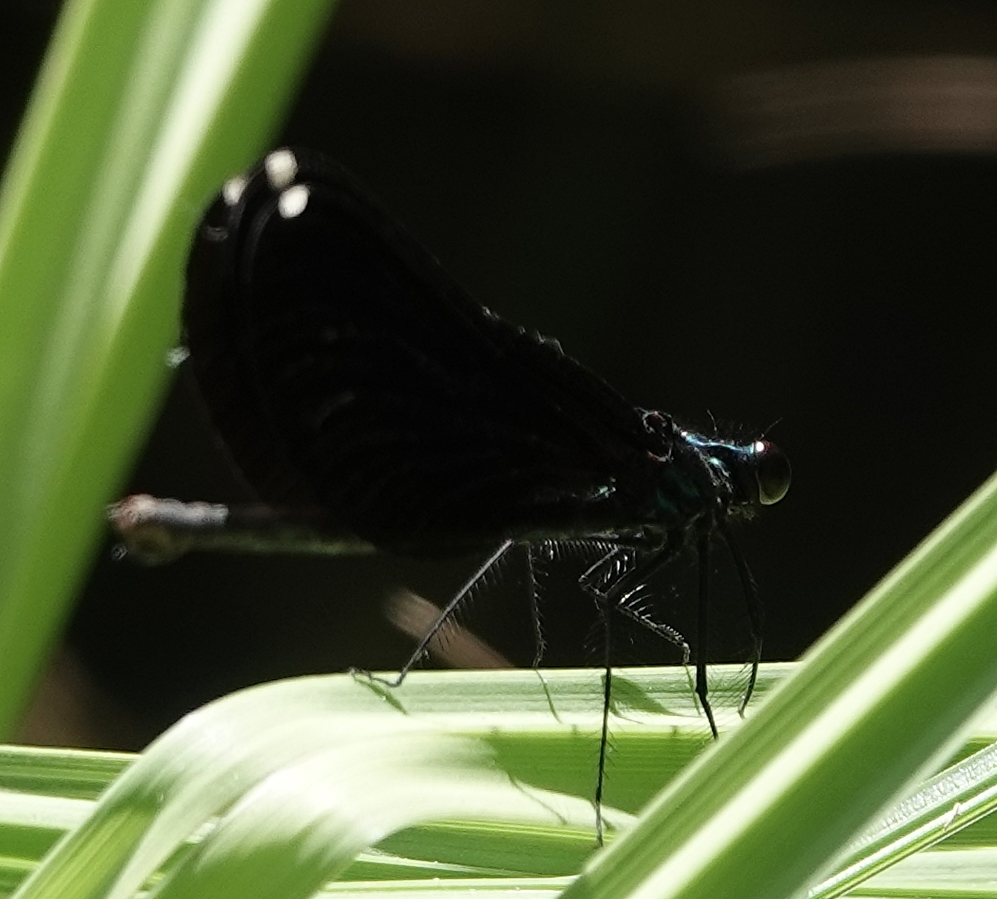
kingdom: Animalia
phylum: Arthropoda
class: Insecta
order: Odonata
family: Calopterygidae
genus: Calopteryx
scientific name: Calopteryx maculata
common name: Ebony jewelwing
